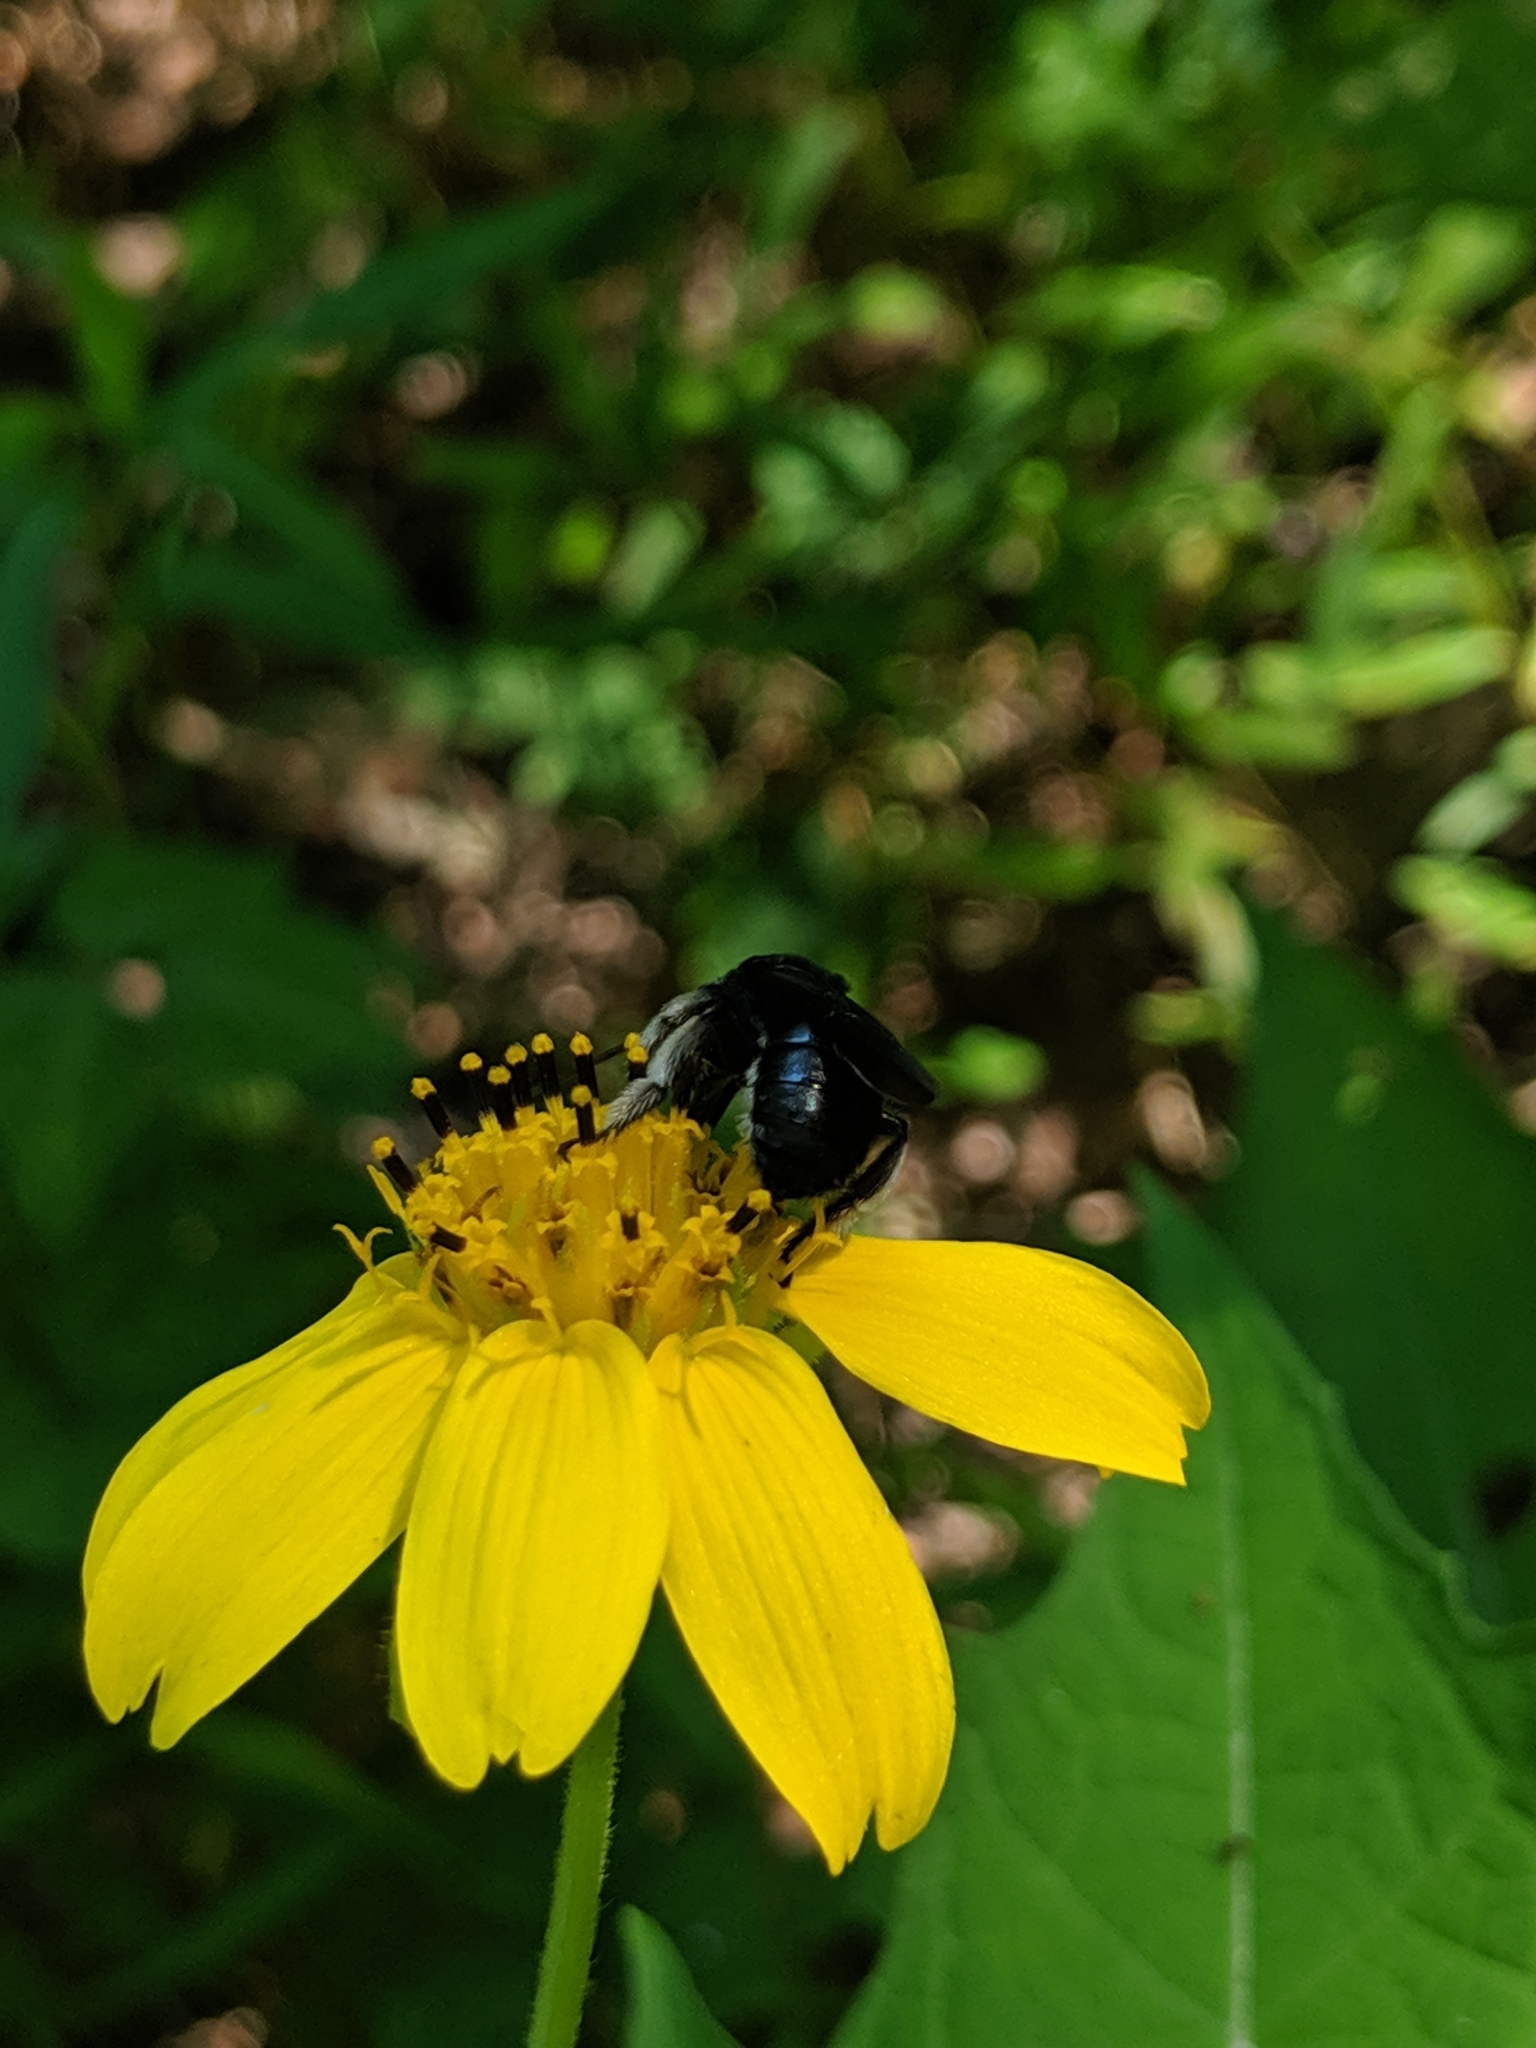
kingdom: Animalia
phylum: Arthropoda
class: Insecta
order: Hymenoptera
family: Apidae
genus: Melissodes
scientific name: Melissodes bimaculatus
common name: Two-spotted long-horned bee
